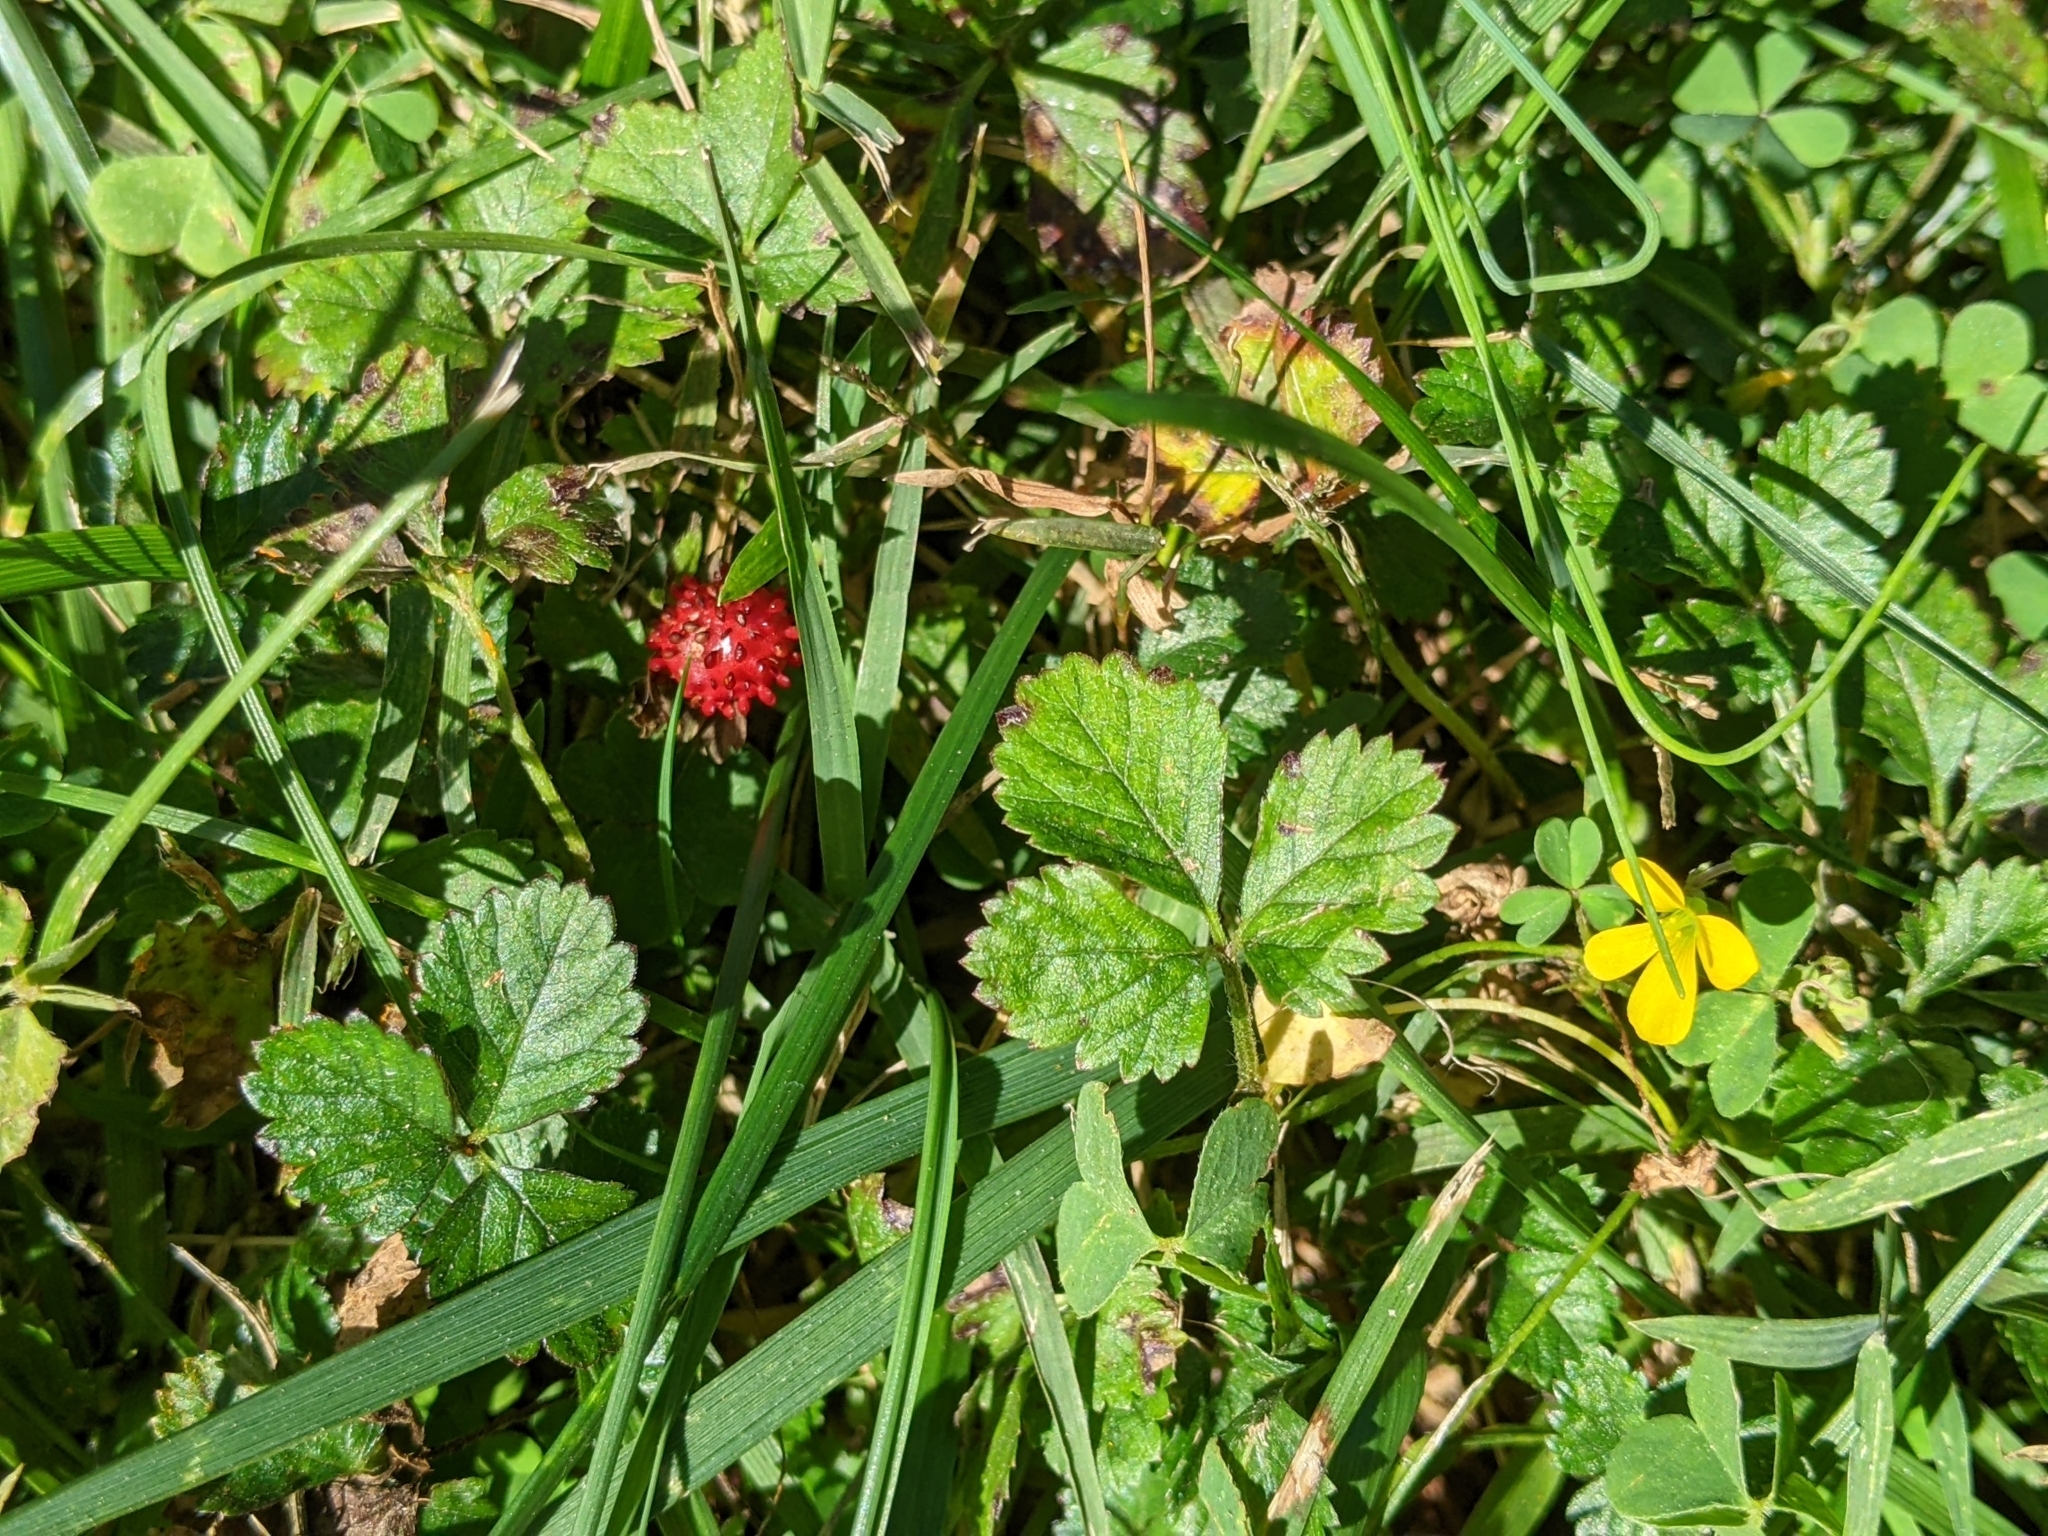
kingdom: Plantae
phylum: Tracheophyta
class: Magnoliopsida
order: Rosales
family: Rosaceae
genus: Potentilla
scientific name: Potentilla indica
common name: Yellow-flowered strawberry
